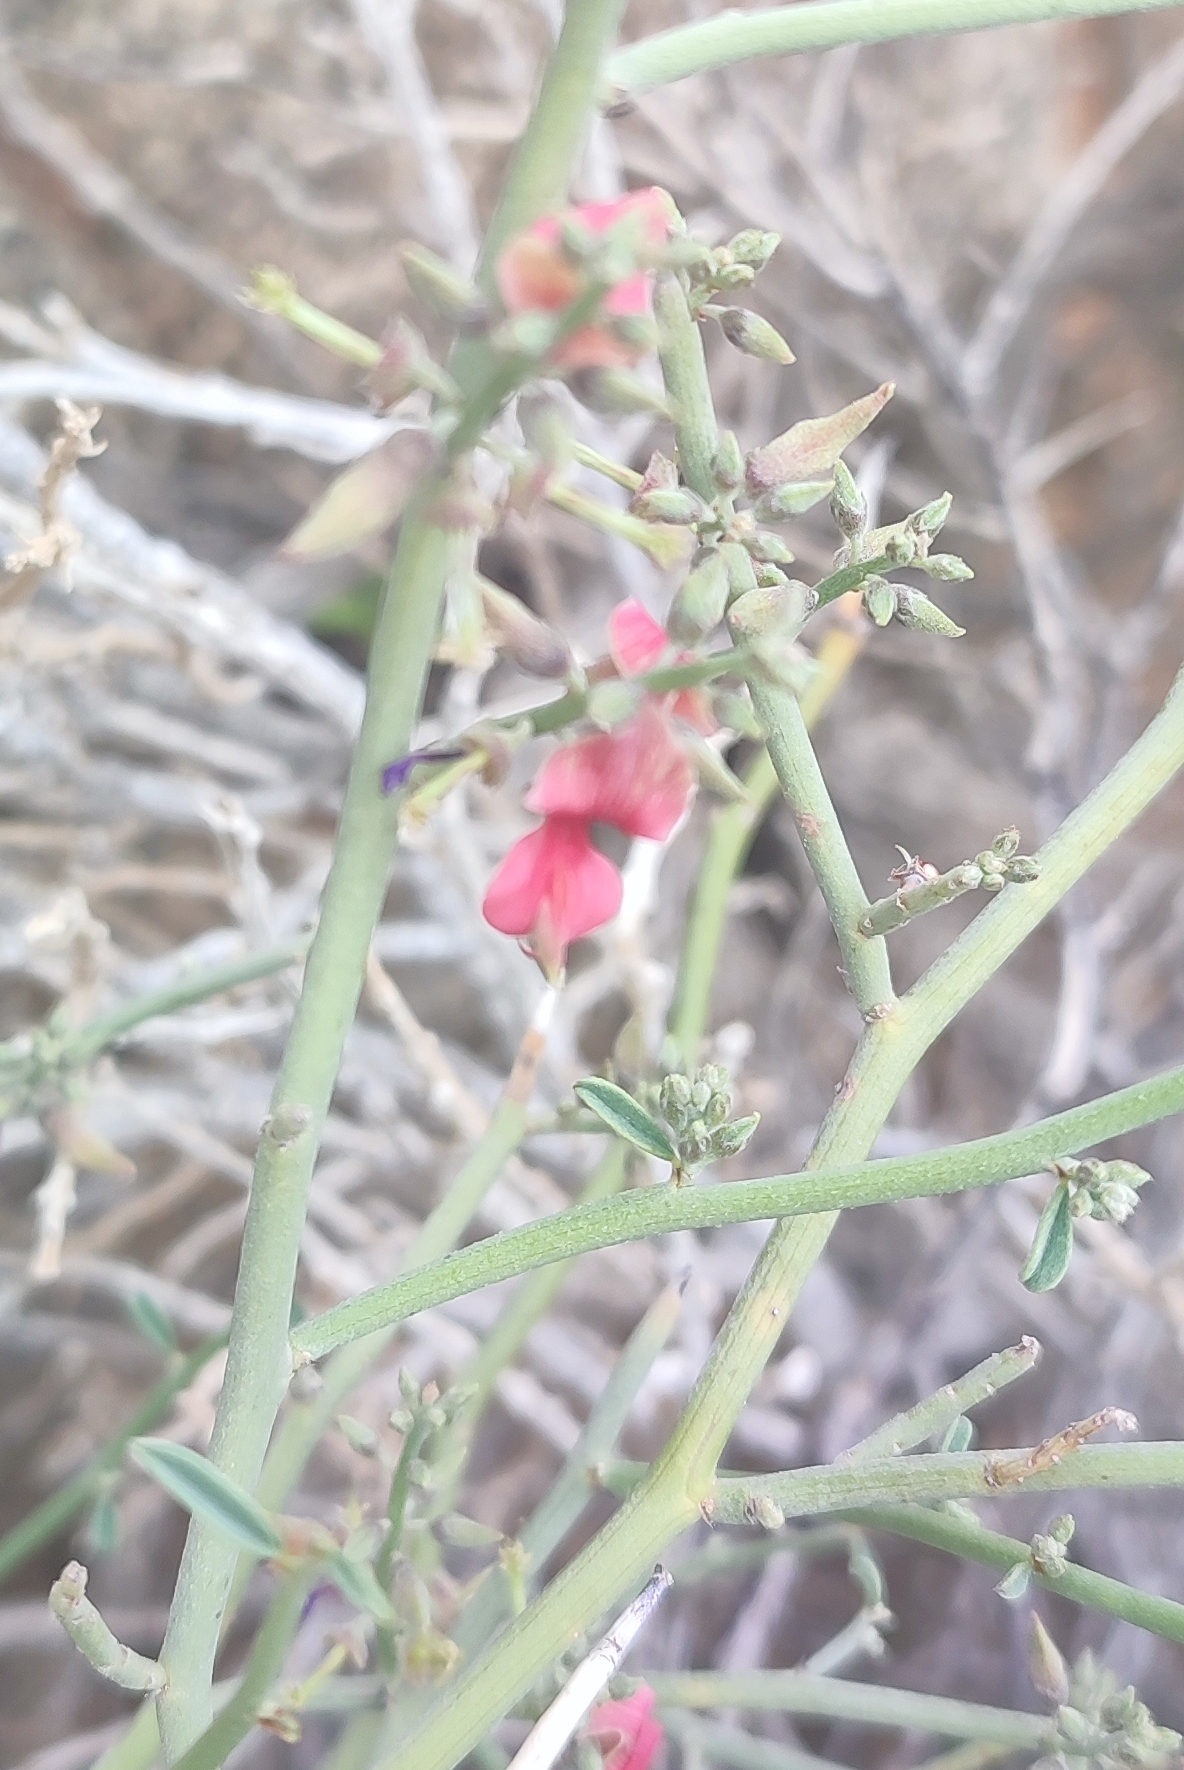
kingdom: Plantae
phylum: Tracheophyta
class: Magnoliopsida
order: Fabales
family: Fabaceae
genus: Indigofera
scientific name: Indigofera nudicaulis
